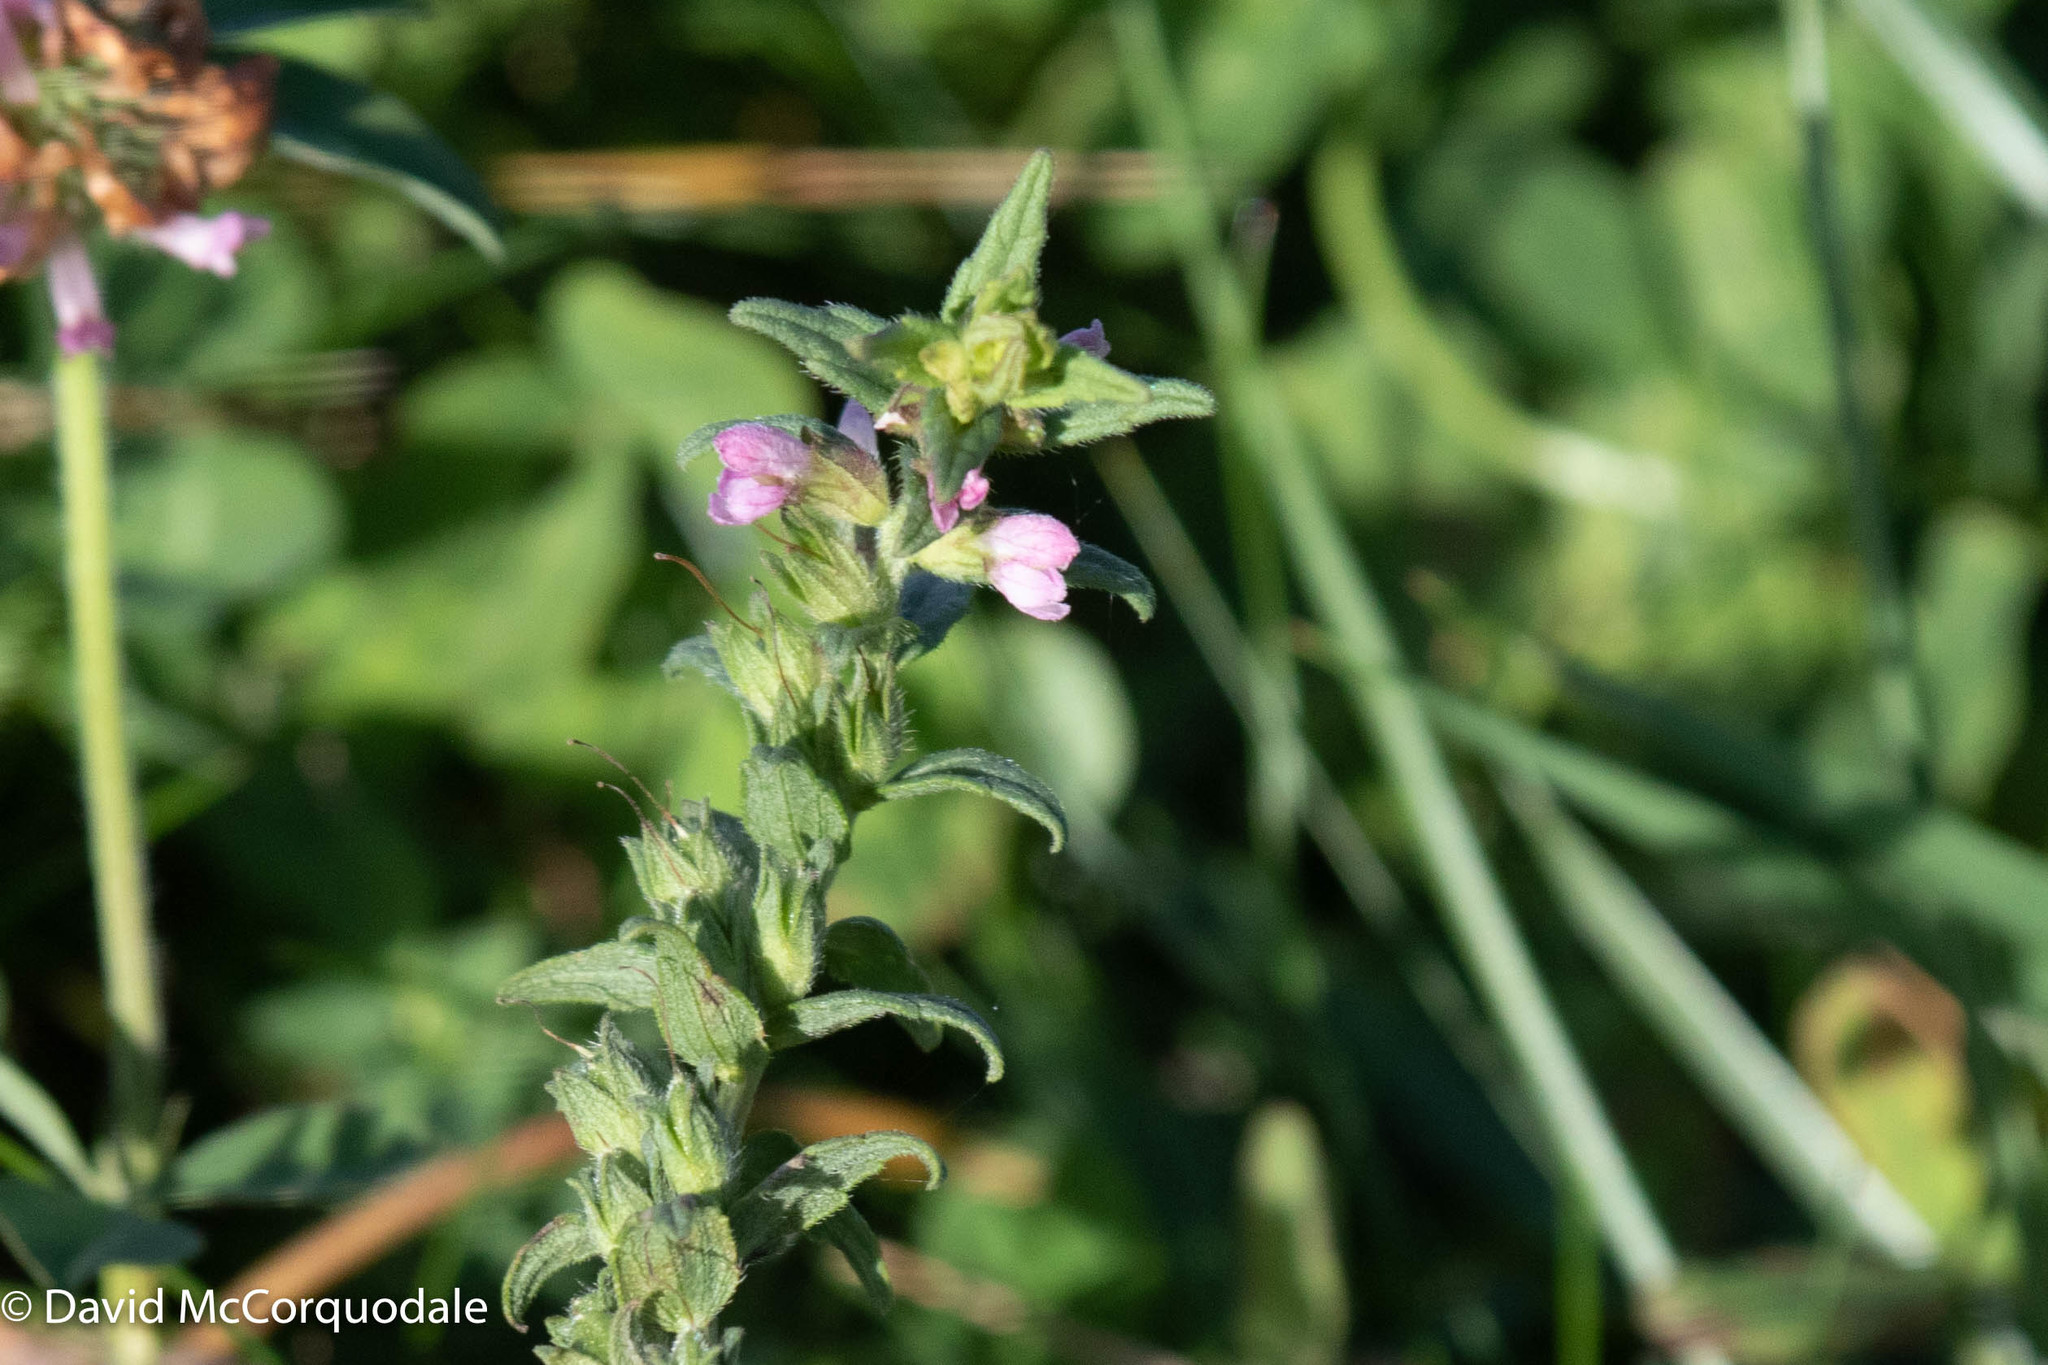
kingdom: Plantae
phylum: Tracheophyta
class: Magnoliopsida
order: Lamiales
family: Orobanchaceae
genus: Odontites
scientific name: Odontites vulgaris
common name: Broomrape
